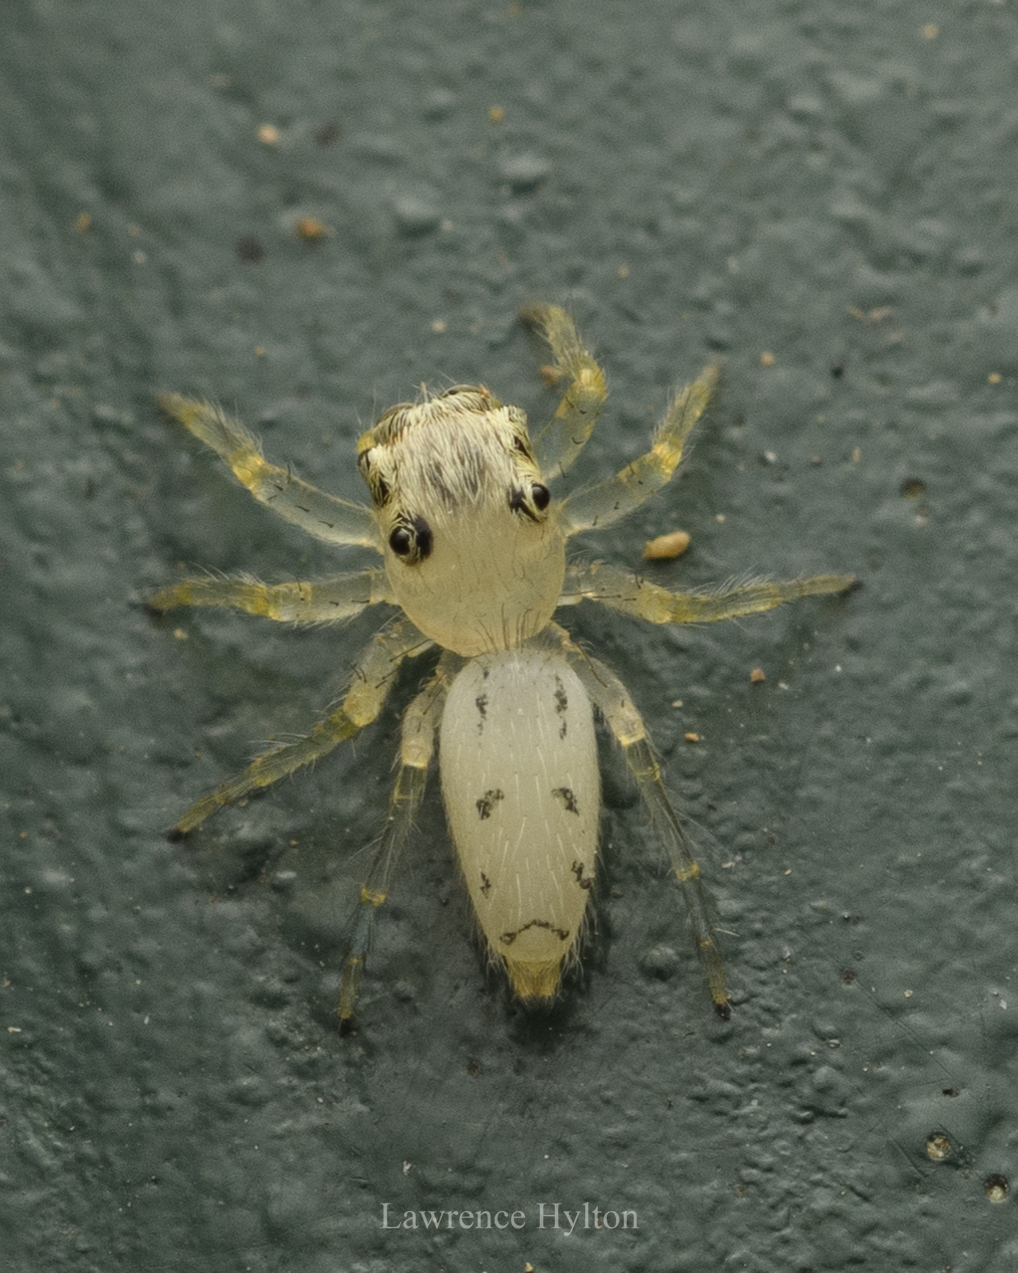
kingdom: Animalia
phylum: Arthropoda
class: Arachnida
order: Araneae
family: Salticidae
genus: Telamonia
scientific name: Telamonia caprina
